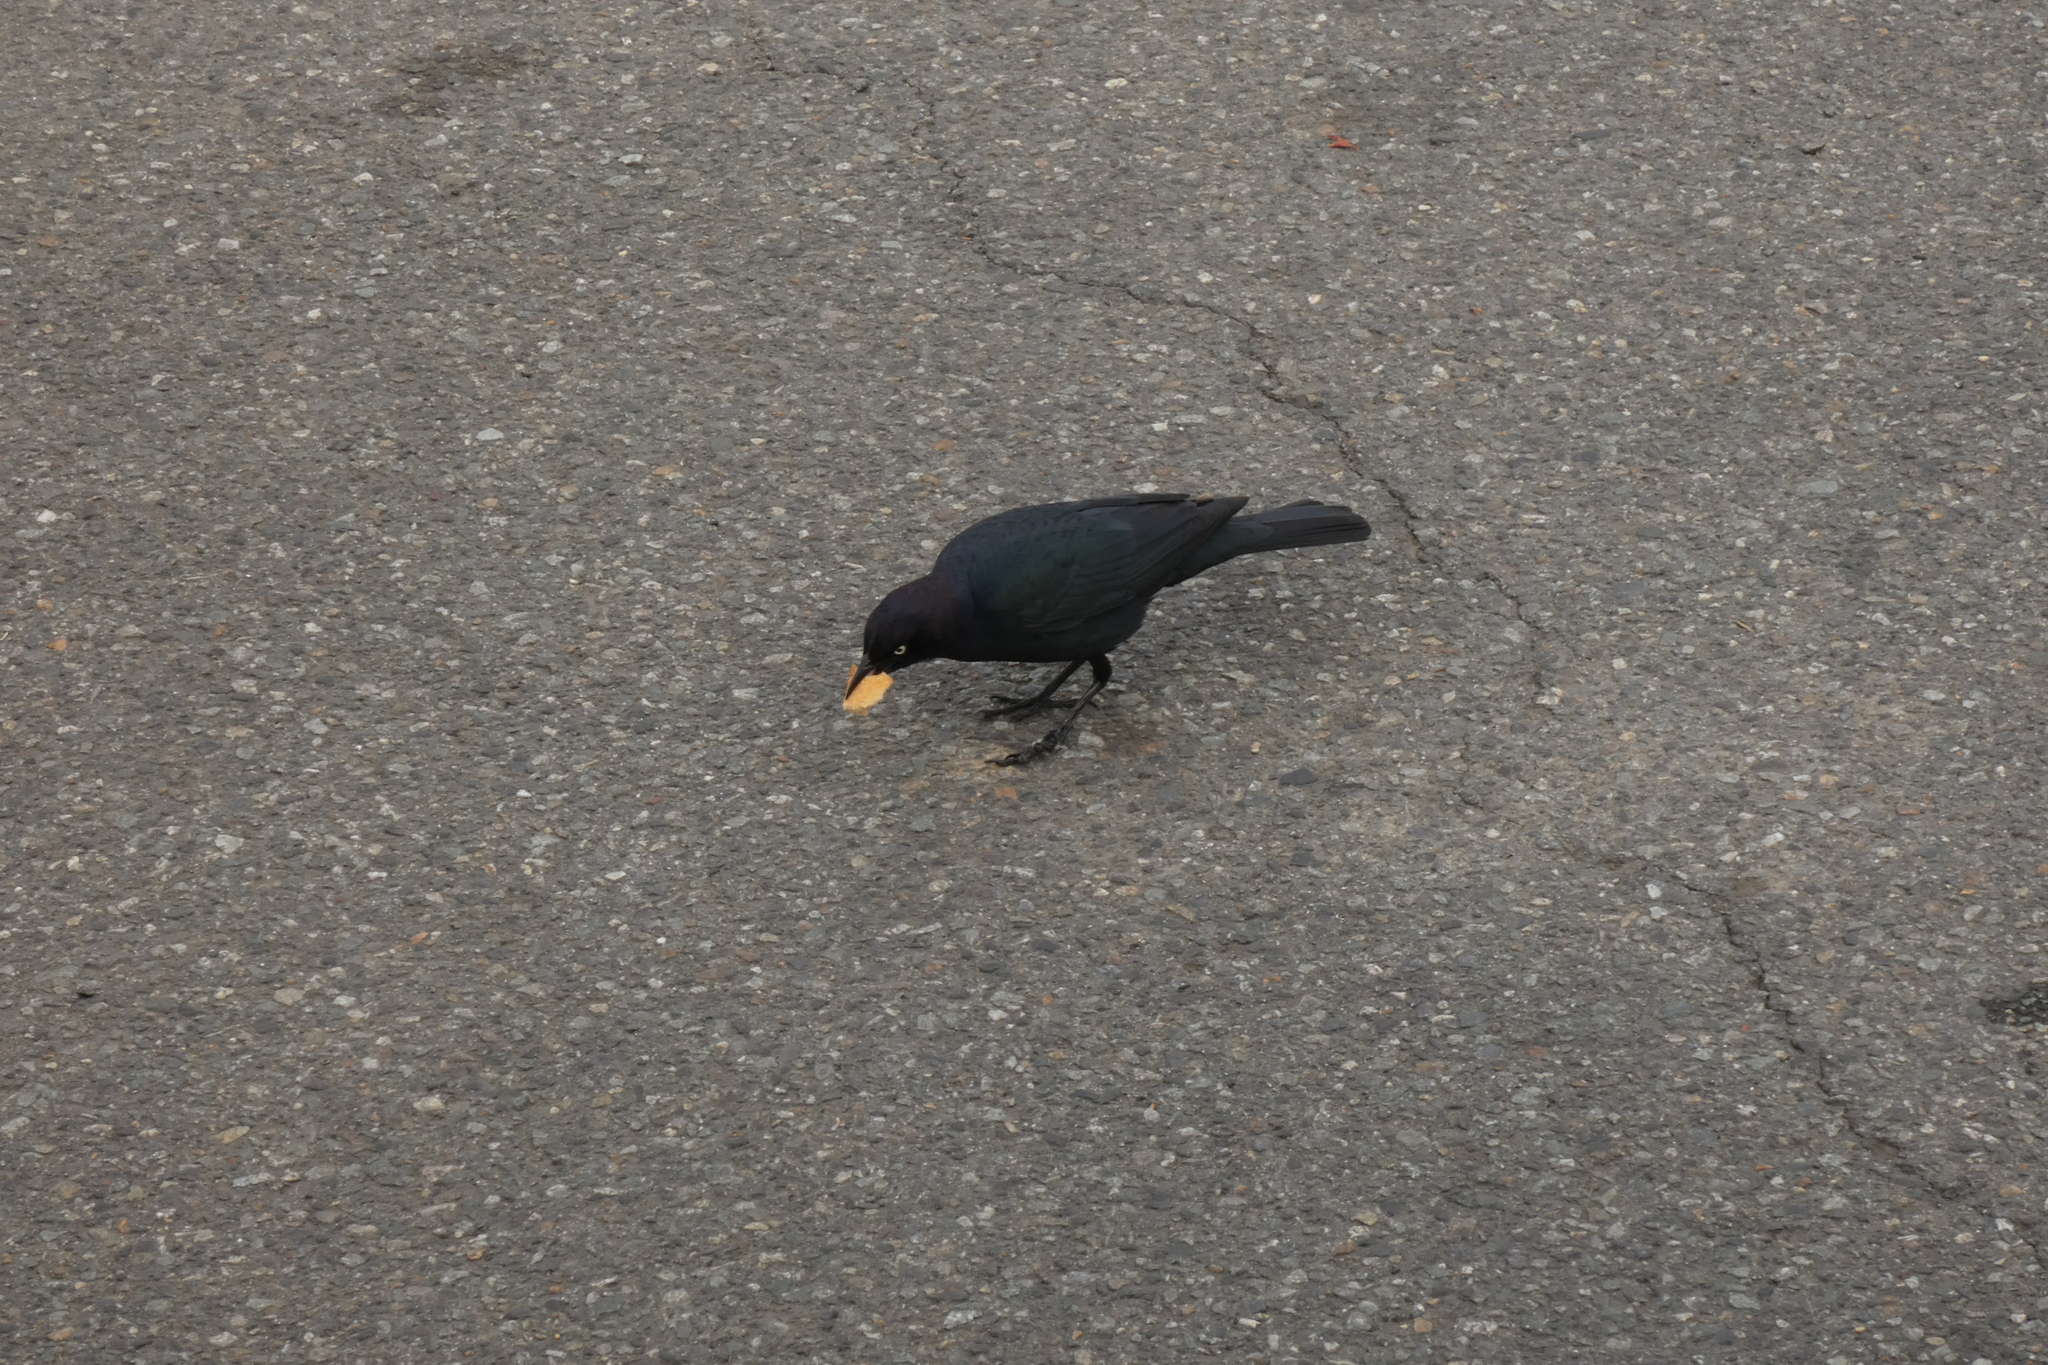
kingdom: Animalia
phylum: Chordata
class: Aves
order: Passeriformes
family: Icteridae
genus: Euphagus
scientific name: Euphagus cyanocephalus
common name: Brewer's blackbird
